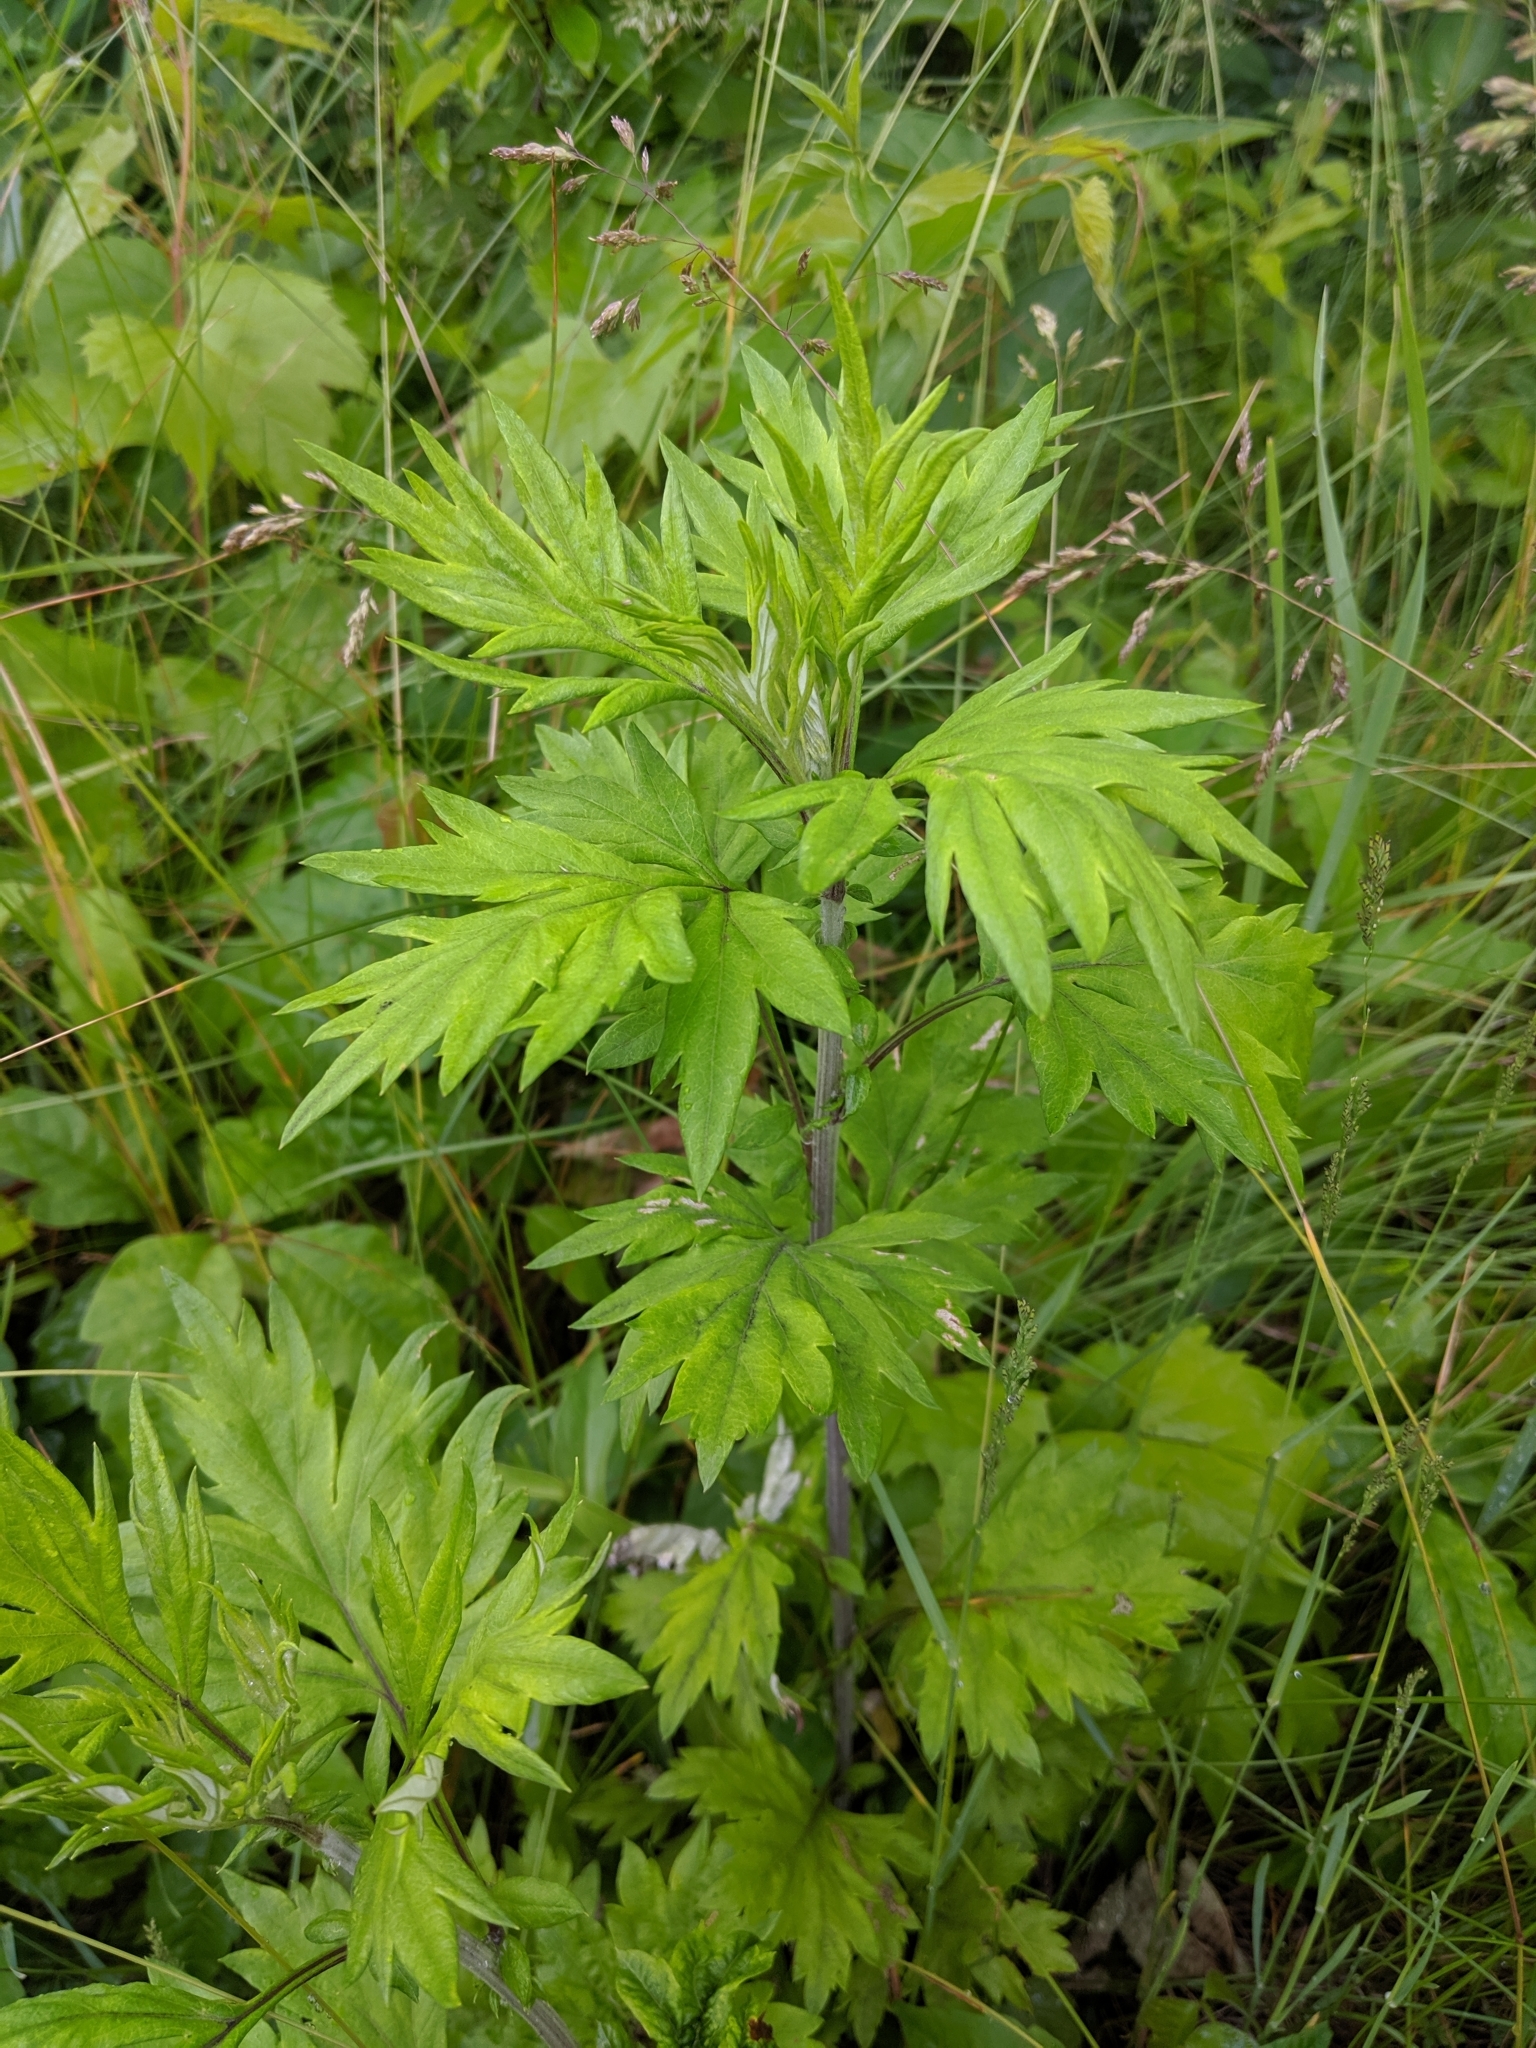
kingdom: Plantae
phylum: Tracheophyta
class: Magnoliopsida
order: Asterales
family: Asteraceae
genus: Artemisia
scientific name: Artemisia vulgaris
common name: Mugwort
